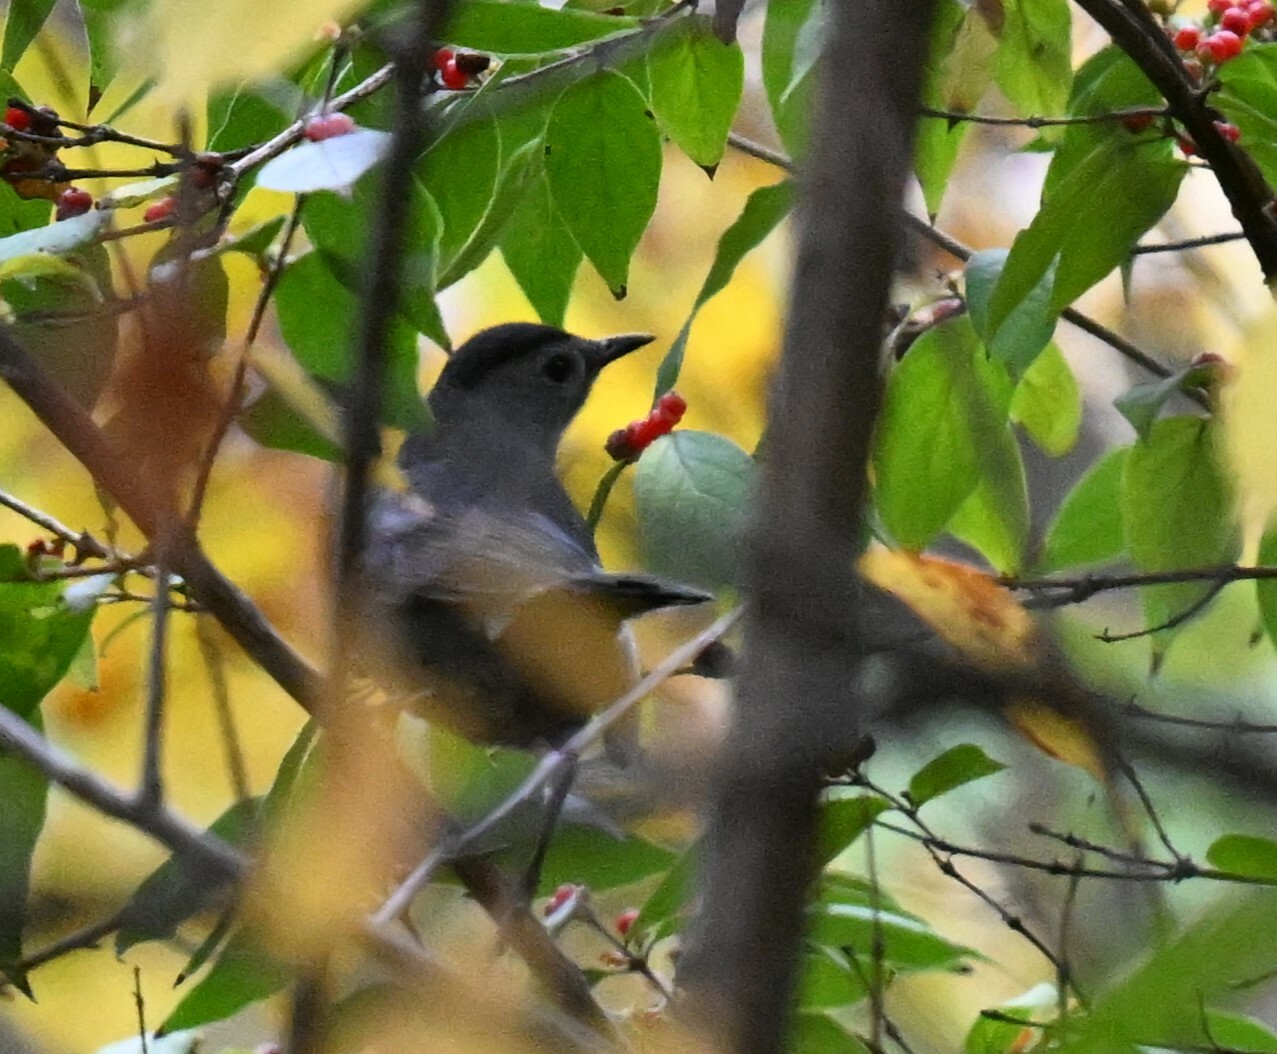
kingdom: Animalia
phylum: Chordata
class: Aves
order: Passeriformes
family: Mimidae
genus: Dumetella
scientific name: Dumetella carolinensis
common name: Gray catbird
